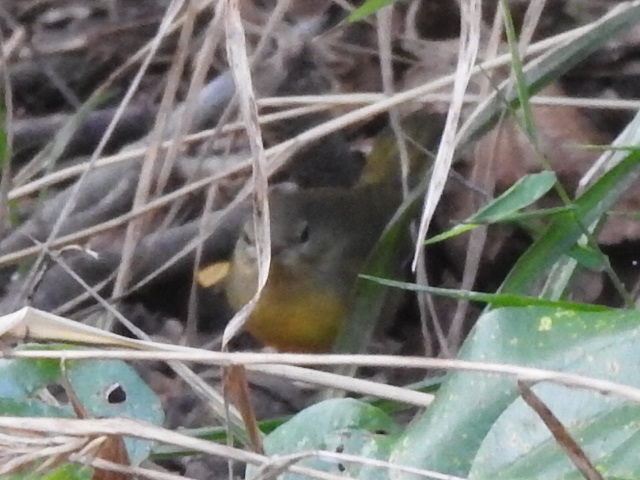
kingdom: Animalia
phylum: Chordata
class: Aves
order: Passeriformes
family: Parulidae
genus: Geothlypis
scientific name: Geothlypis philadelphia
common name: Mourning warbler
